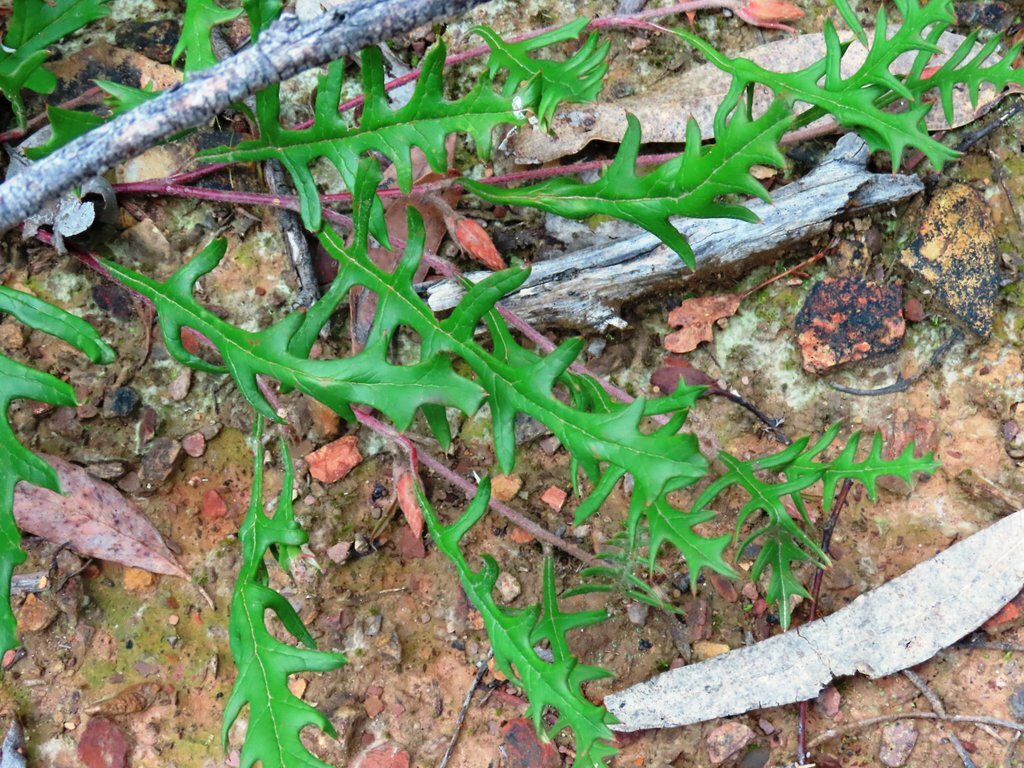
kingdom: Plantae
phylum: Tracheophyta
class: Magnoliopsida
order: Proteales
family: Proteaceae
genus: Grevillea
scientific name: Grevillea obtecta
